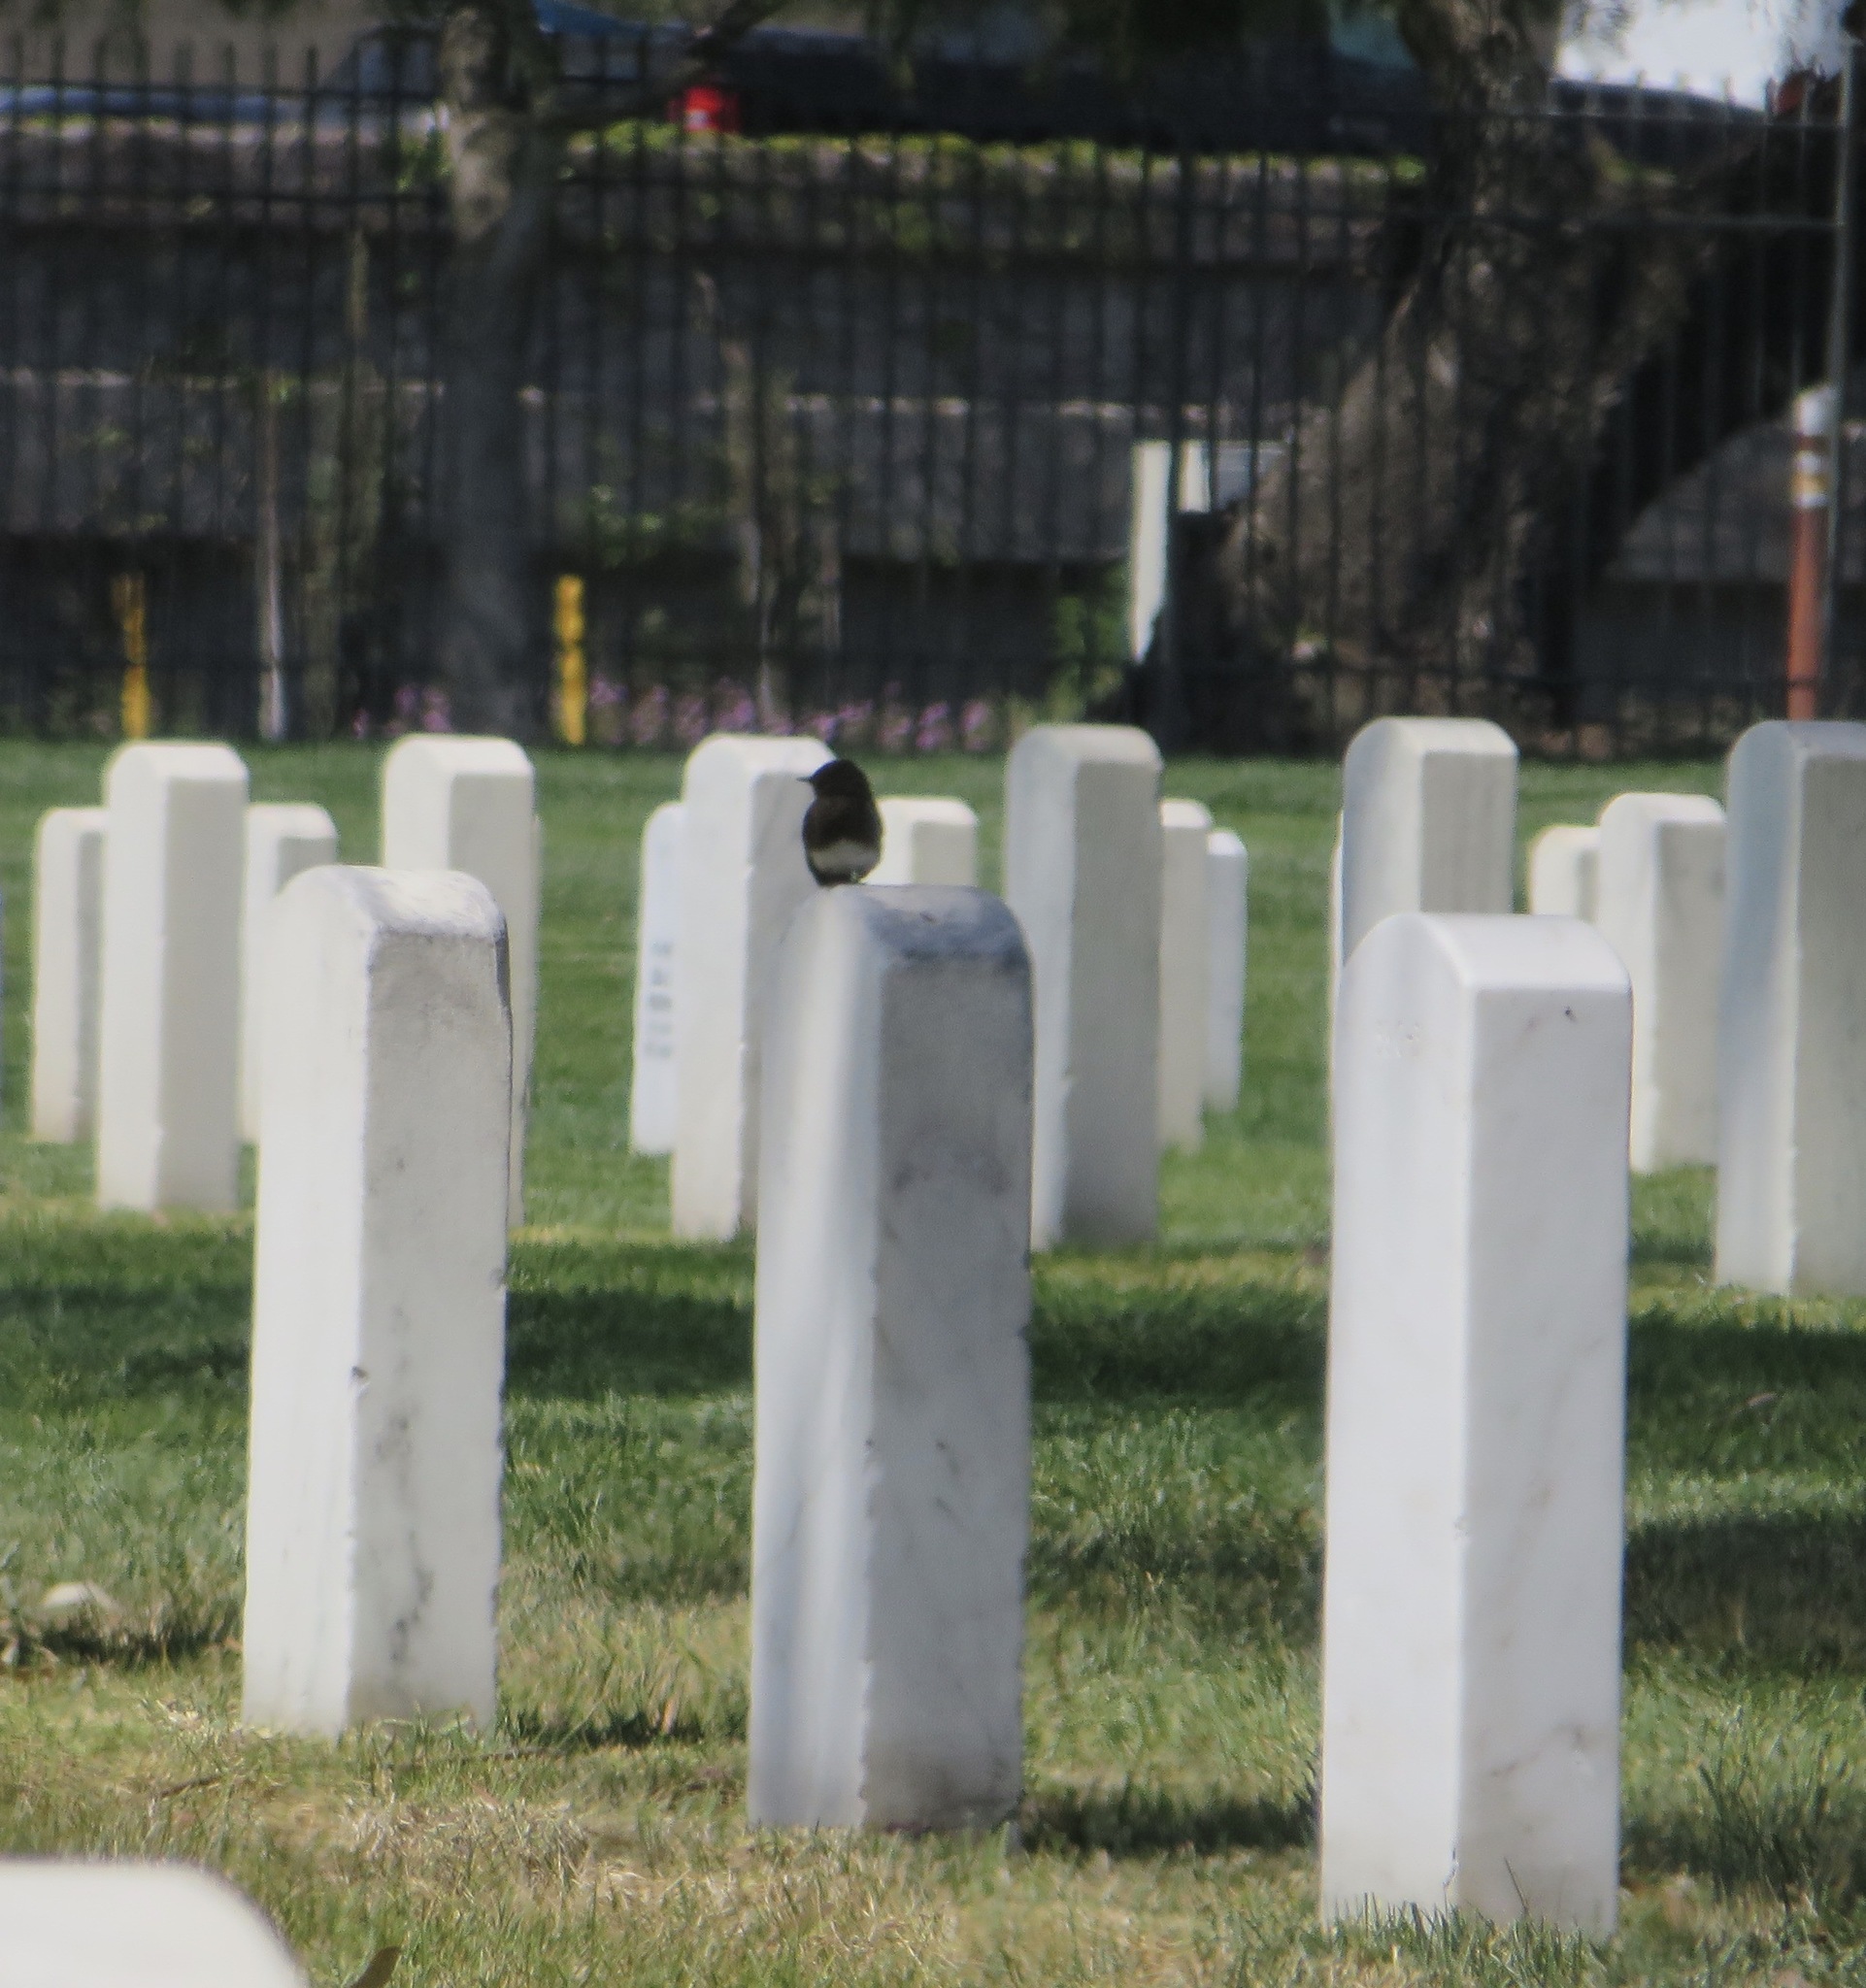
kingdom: Animalia
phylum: Chordata
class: Aves
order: Passeriformes
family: Tyrannidae
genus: Sayornis
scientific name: Sayornis nigricans
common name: Black phoebe
